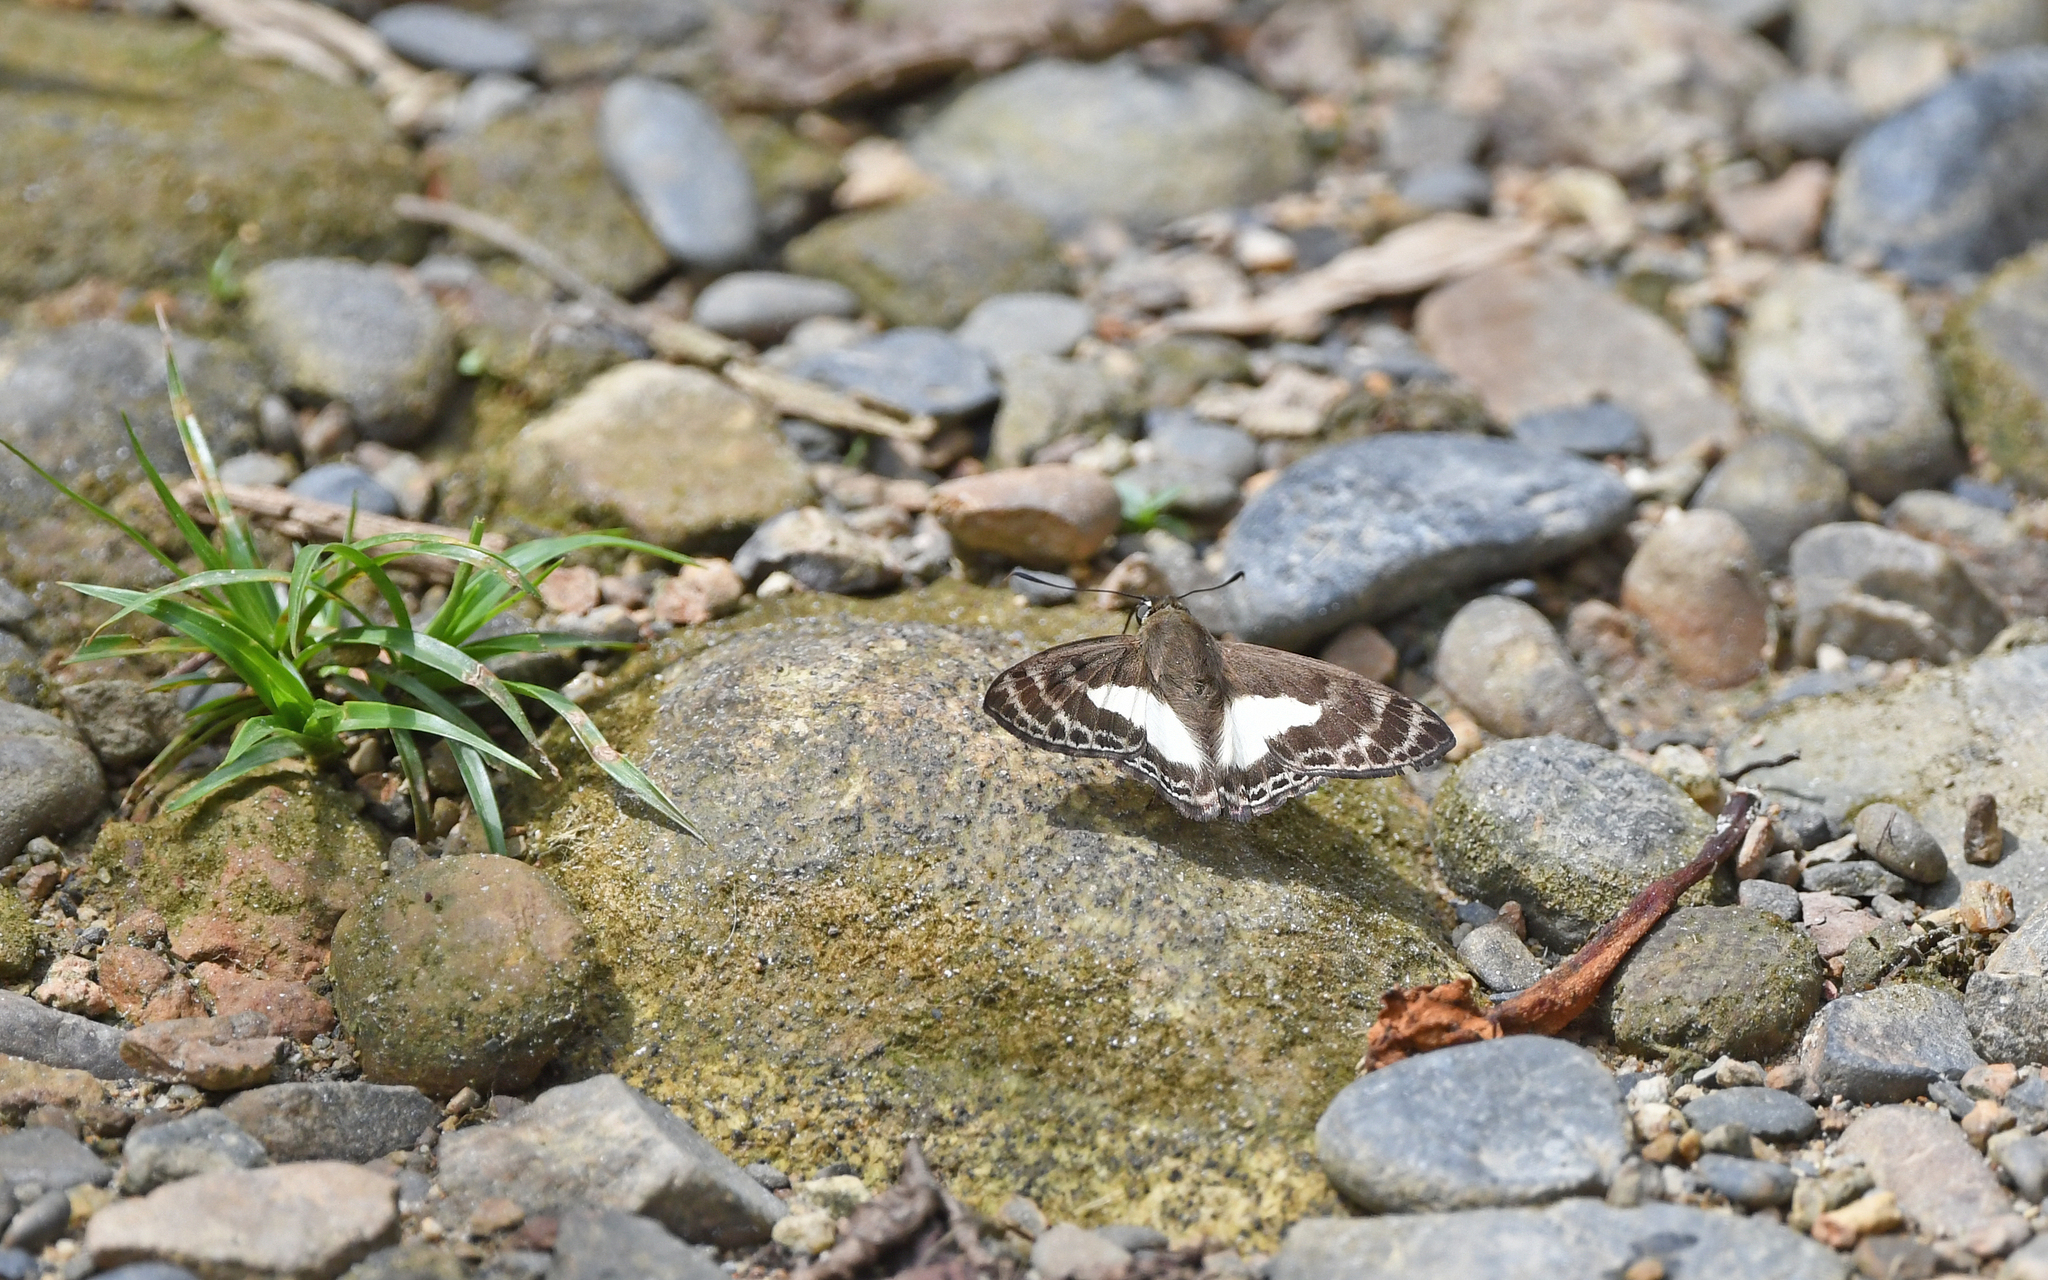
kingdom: Animalia
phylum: Arthropoda
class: Insecta
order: Lepidoptera
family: Hesperiidae
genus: Sophista
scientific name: Sophista aristoteles
